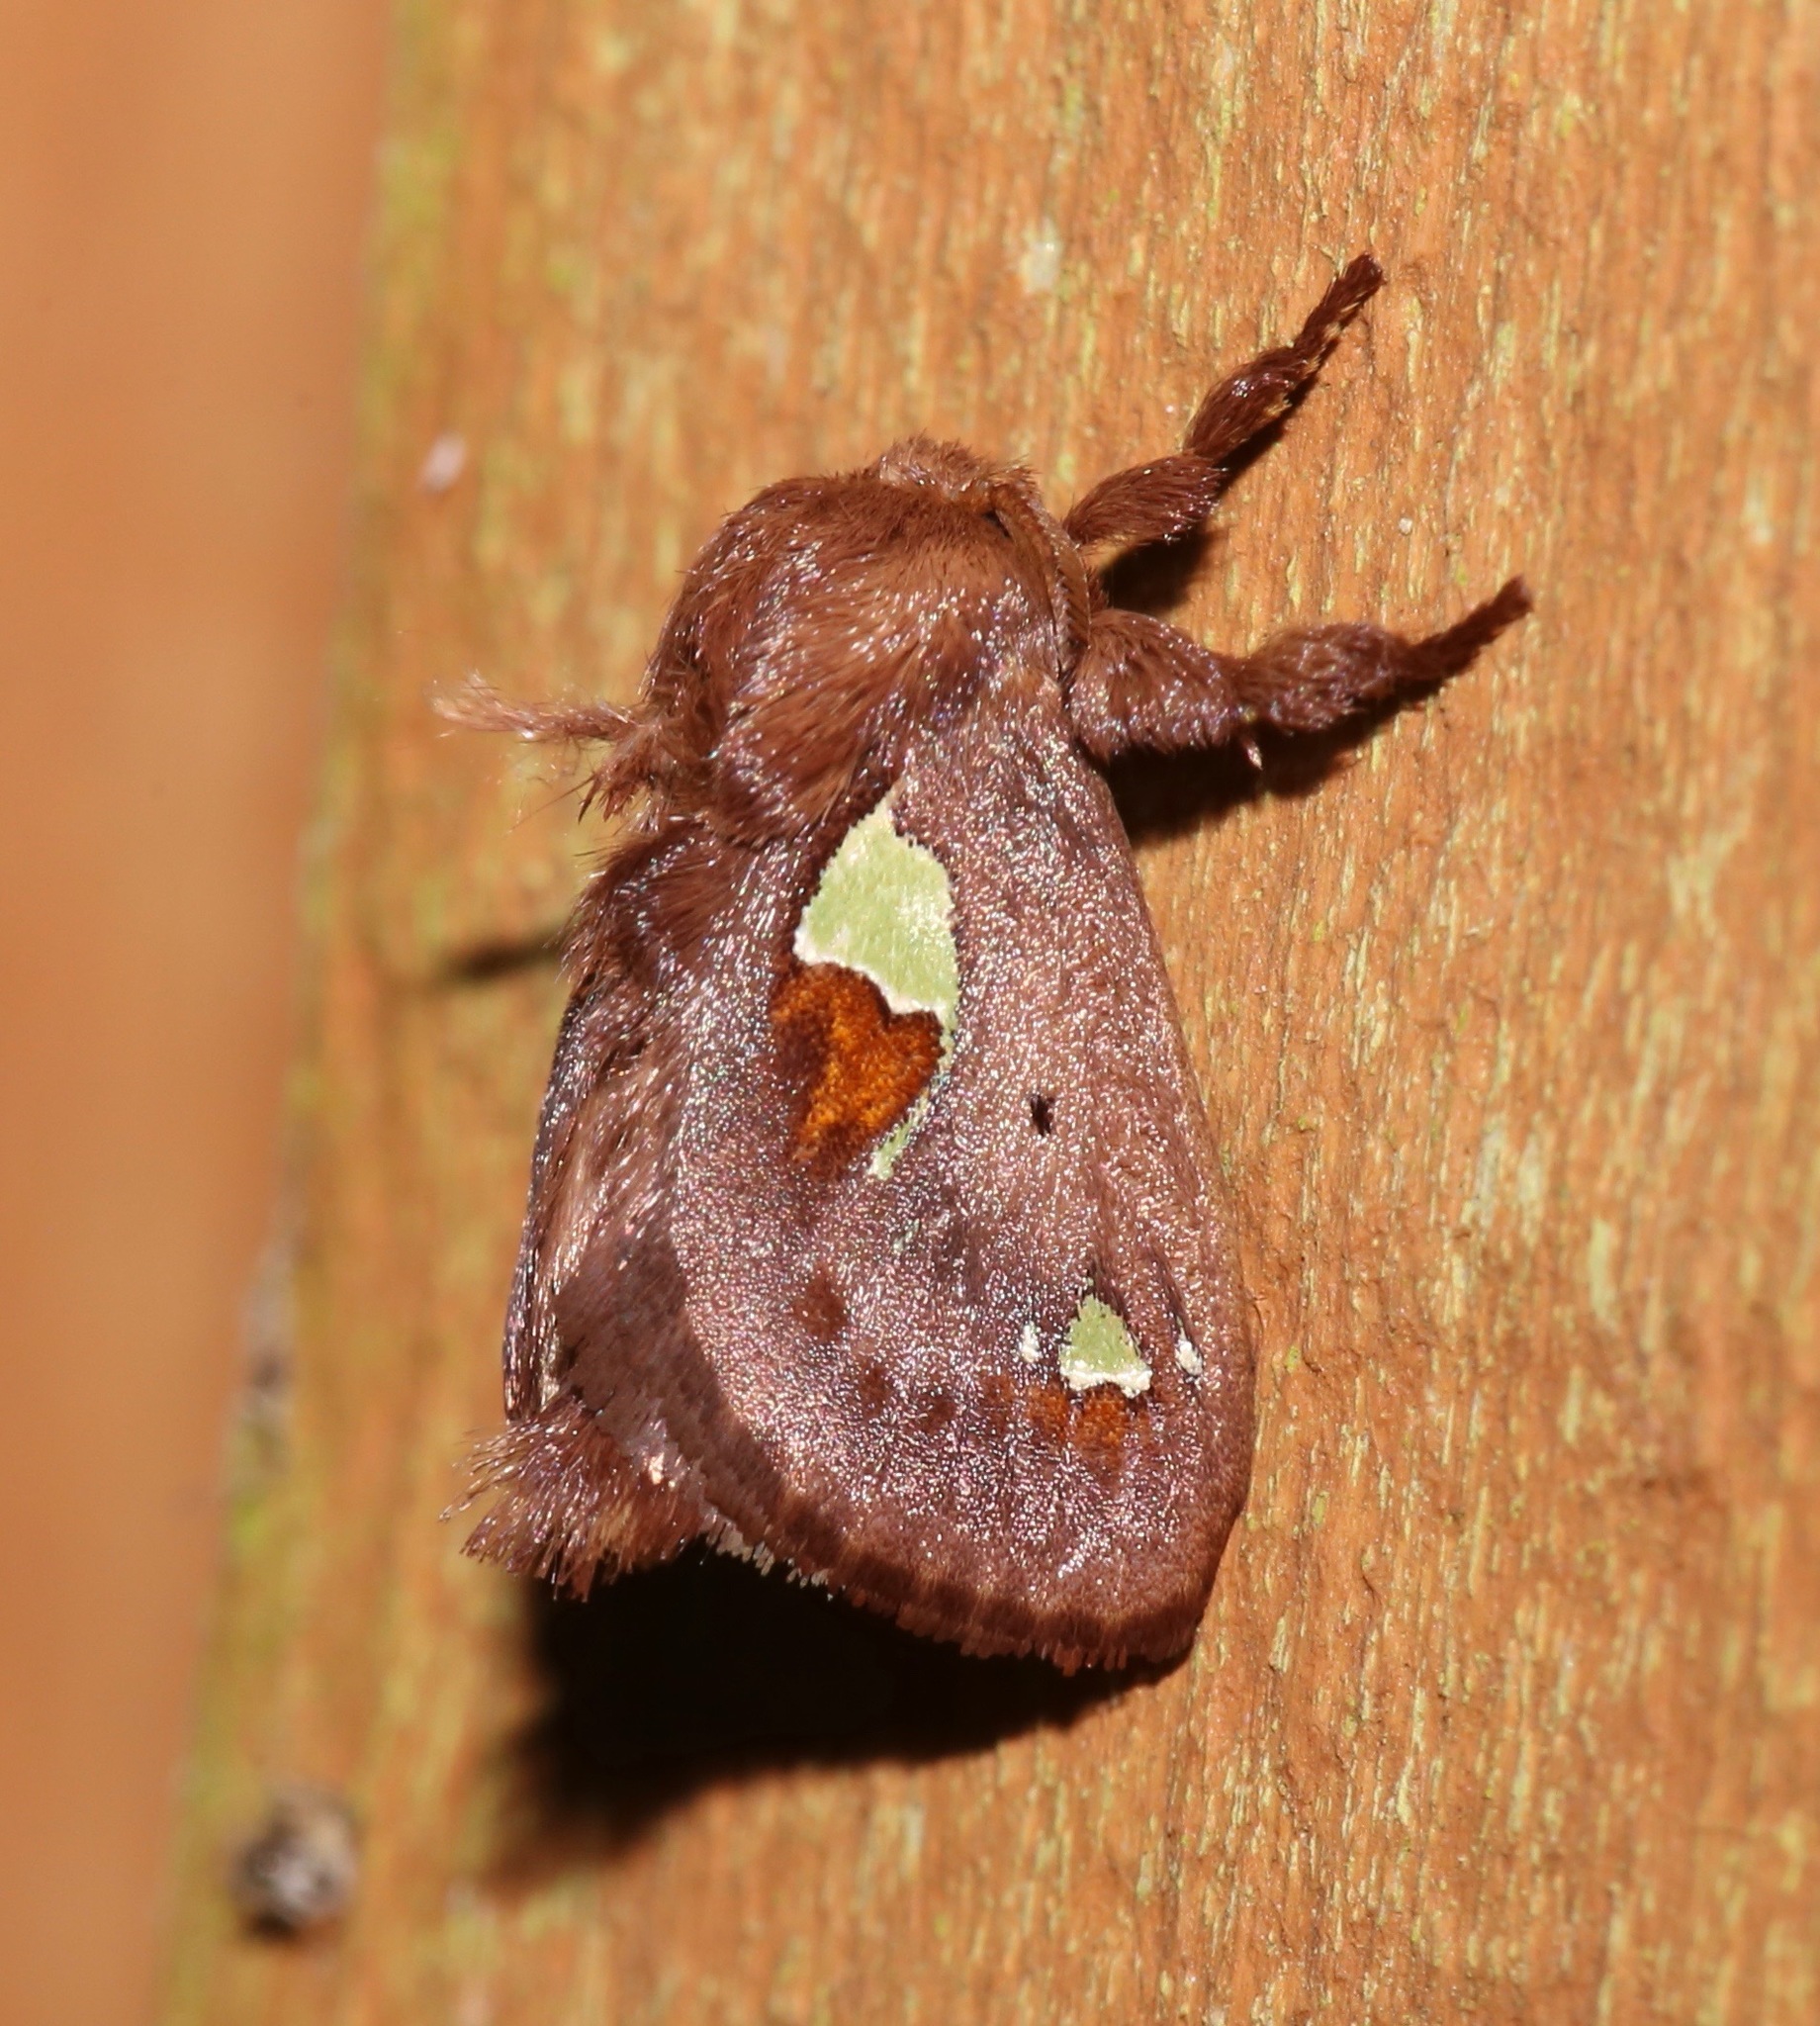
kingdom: Animalia
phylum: Arthropoda
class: Insecta
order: Lepidoptera
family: Limacodidae
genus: Euclea
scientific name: Euclea delphinii
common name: Spiny oak-slug moth
